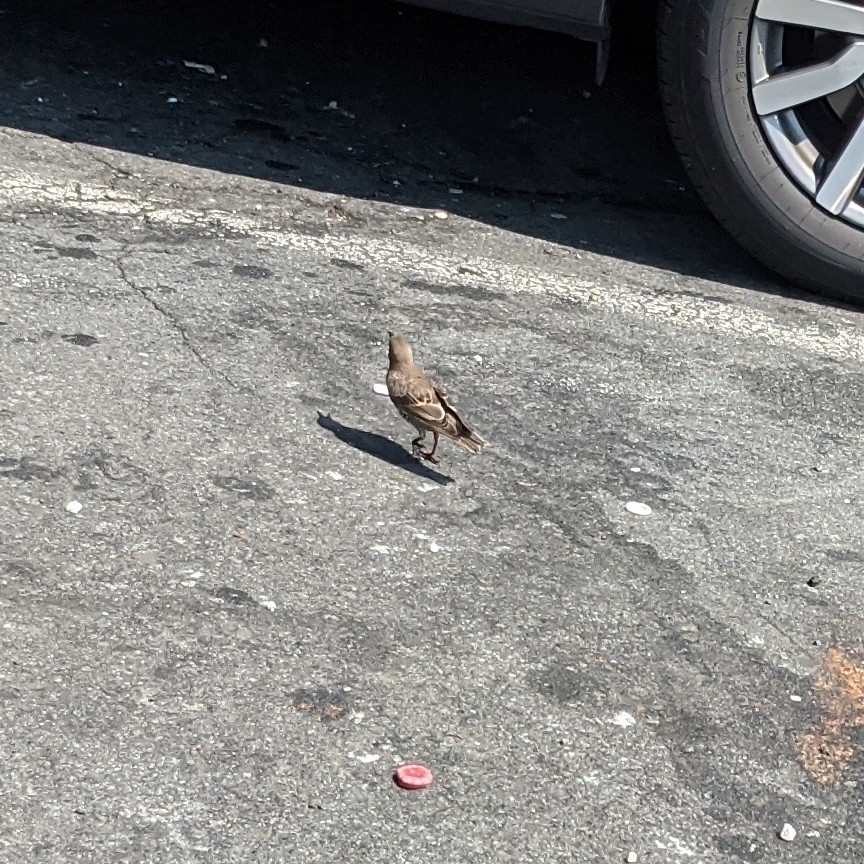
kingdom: Animalia
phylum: Chordata
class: Aves
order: Passeriformes
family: Sturnidae
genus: Sturnus
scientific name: Sturnus vulgaris
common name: Common starling
